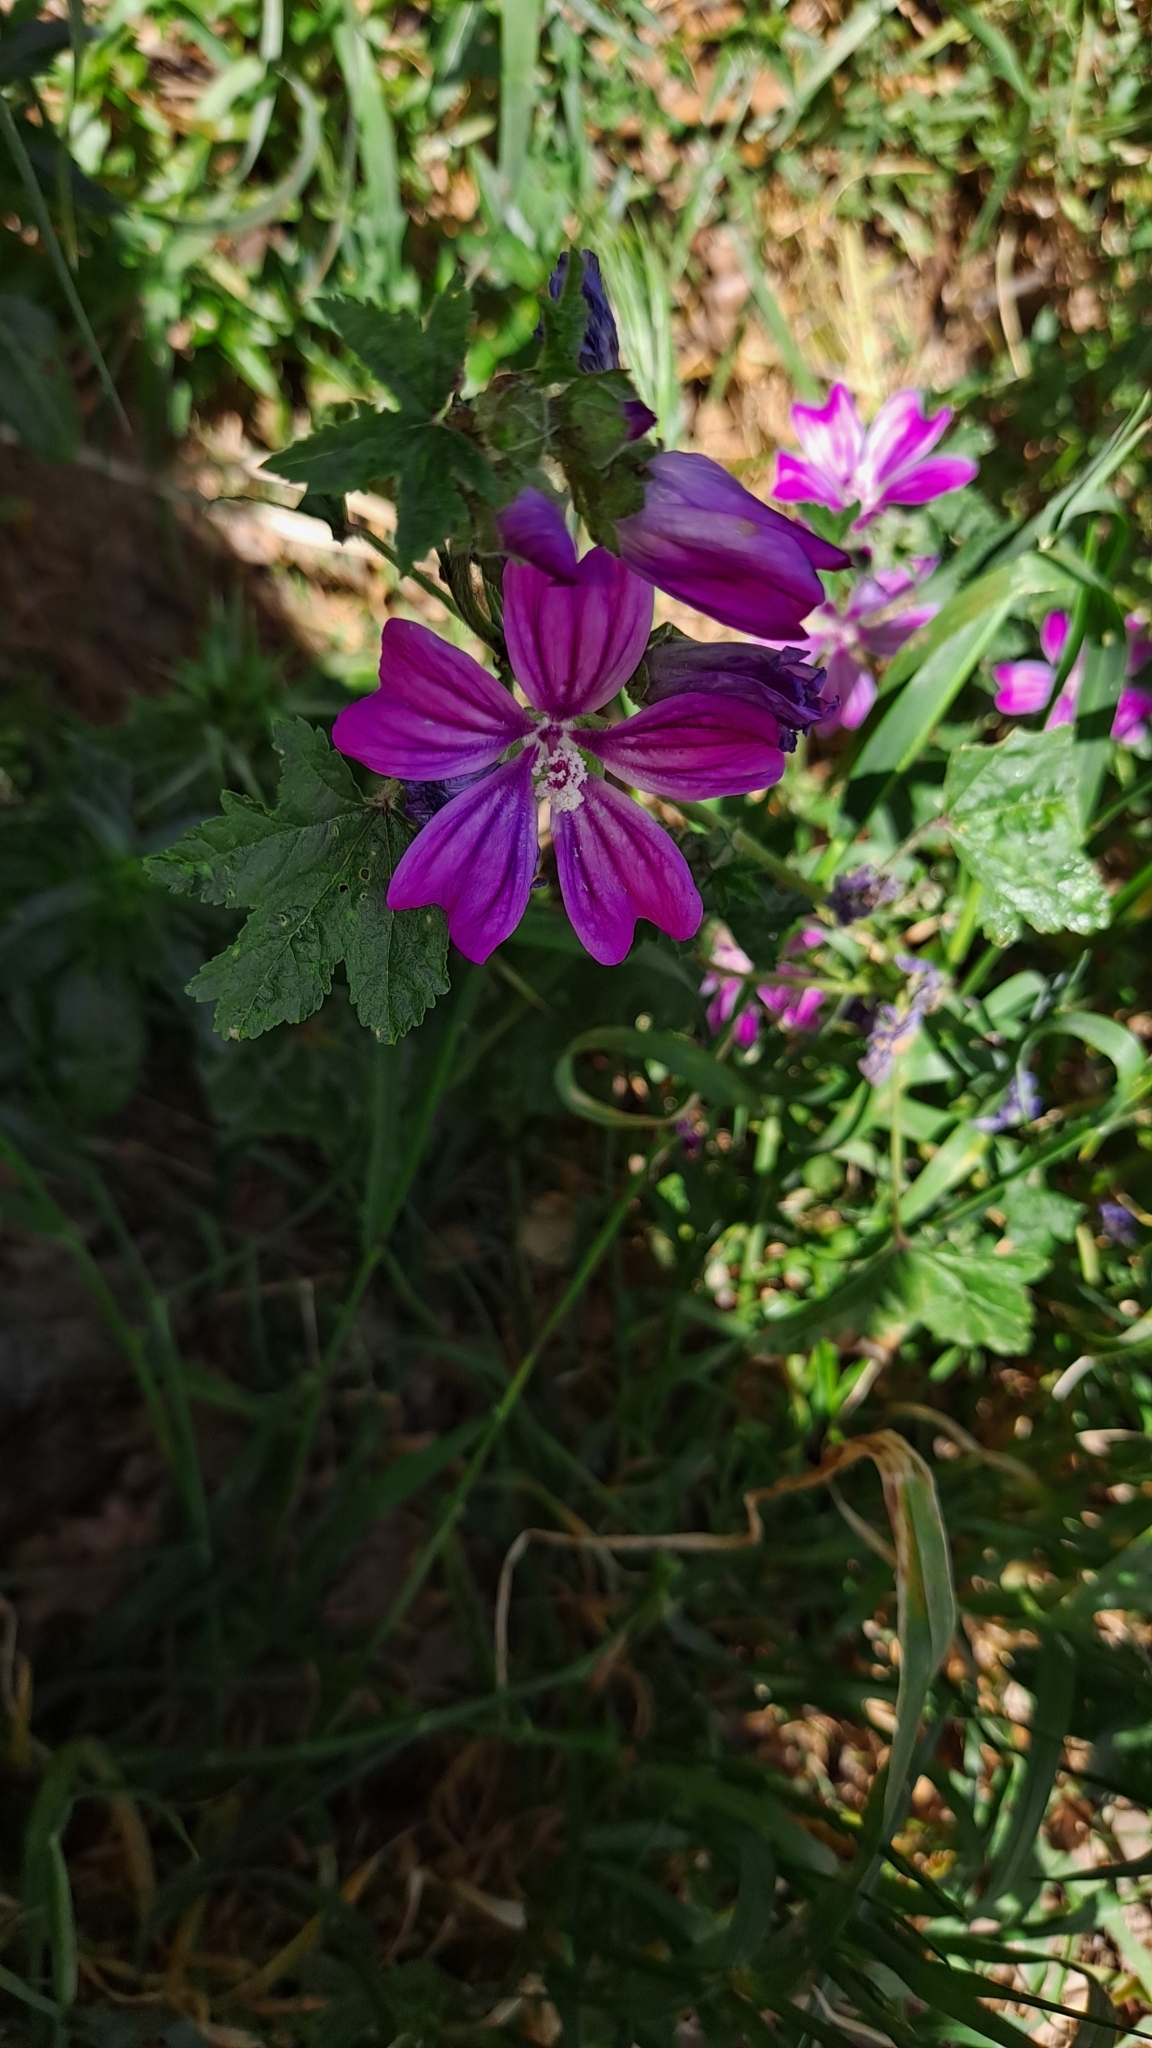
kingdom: Plantae
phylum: Tracheophyta
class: Magnoliopsida
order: Malvales
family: Malvaceae
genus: Malva
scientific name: Malva sylvestris
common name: Common mallow
